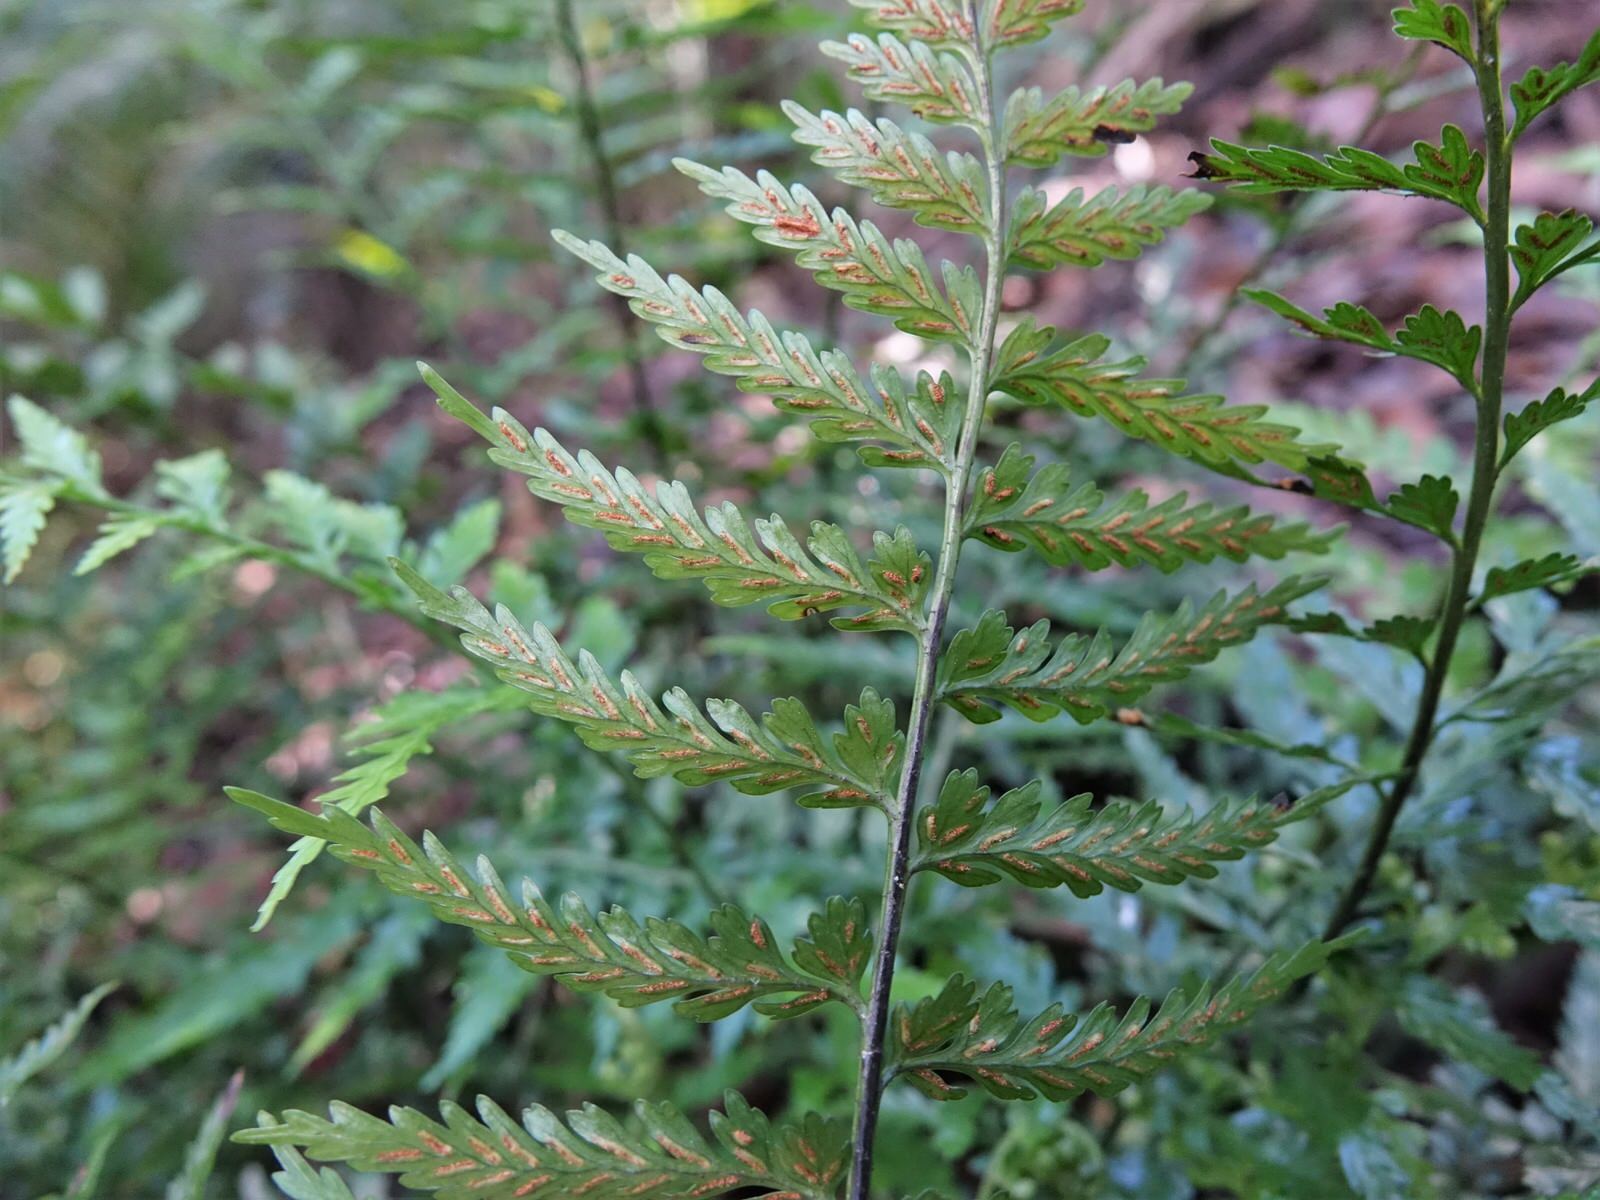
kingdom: Plantae
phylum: Tracheophyta
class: Polypodiopsida
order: Polypodiales
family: Aspleniaceae
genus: Asplenium
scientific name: Asplenium lamprophyllum
